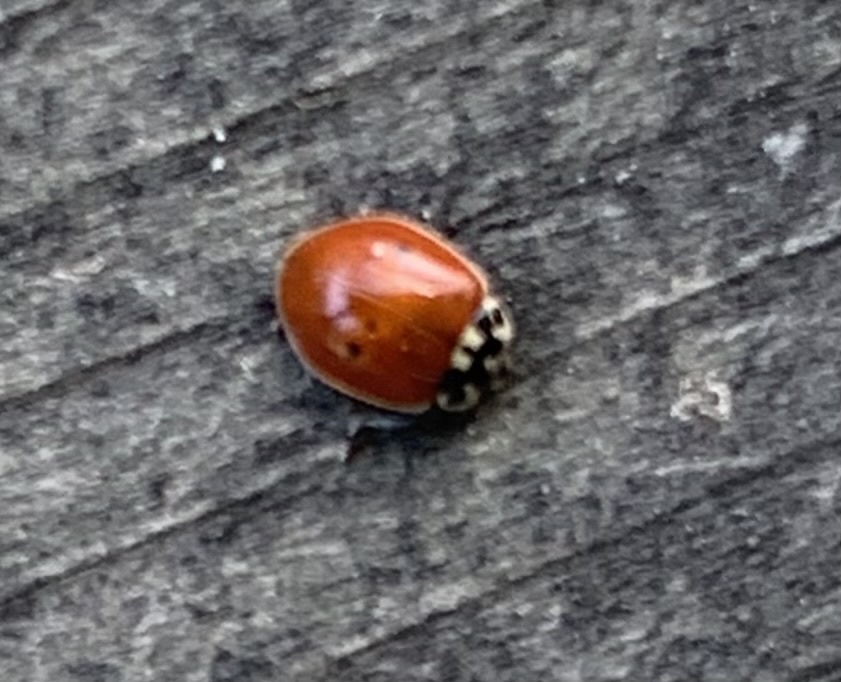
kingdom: Animalia
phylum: Arthropoda
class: Insecta
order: Coleoptera
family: Coccinellidae
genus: Adalia
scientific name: Adalia bipunctata
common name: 2-spot ladybird
